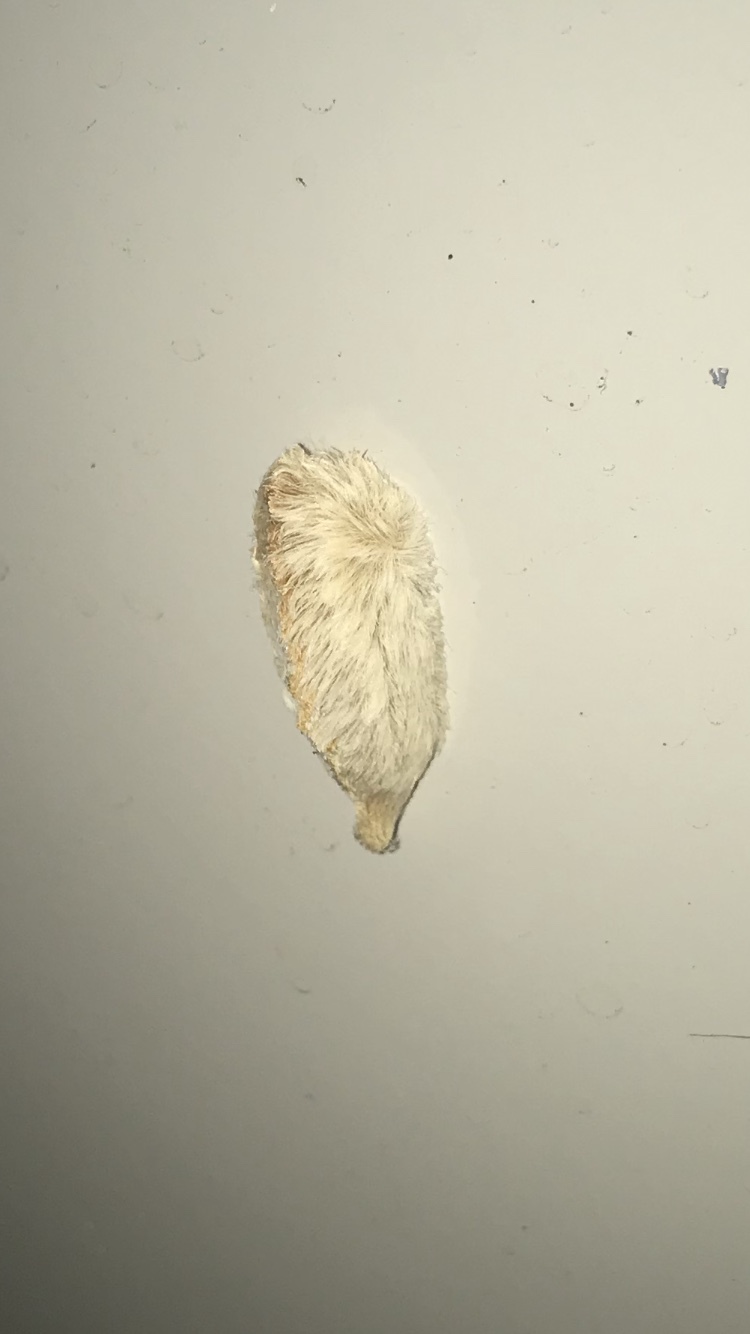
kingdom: Animalia
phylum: Arthropoda
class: Insecta
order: Lepidoptera
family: Megalopygidae
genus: Megalopyge
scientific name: Megalopyge opercularis
